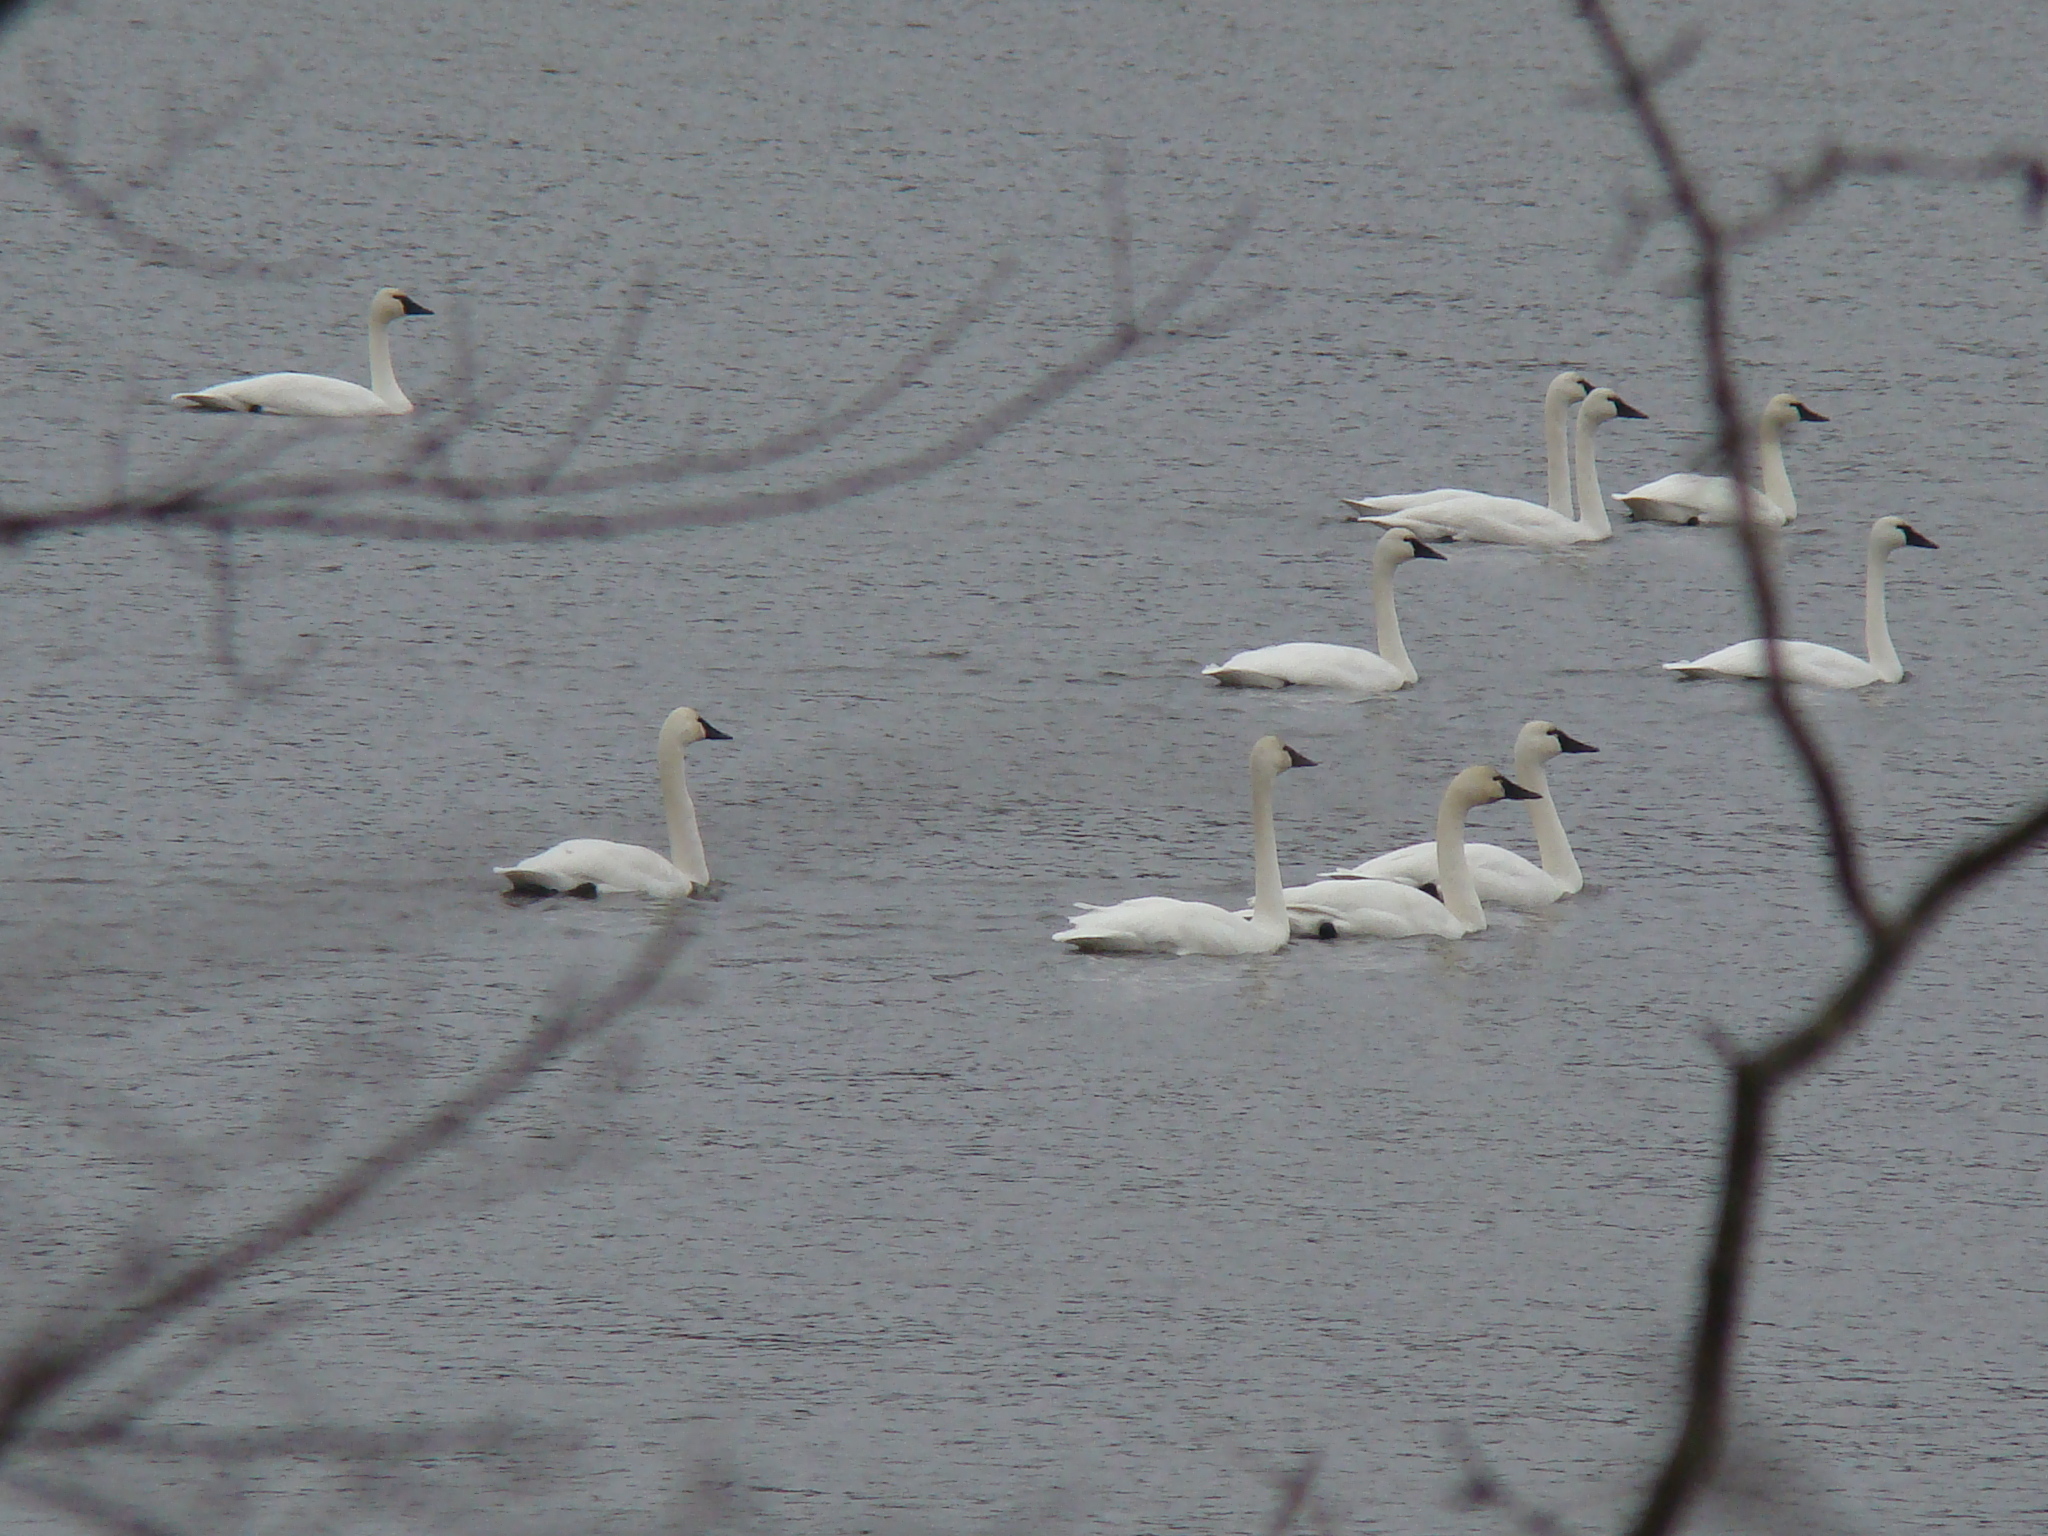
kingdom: Animalia
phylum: Chordata
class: Aves
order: Anseriformes
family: Anatidae
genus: Cygnus
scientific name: Cygnus columbianus
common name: Tundra swan
